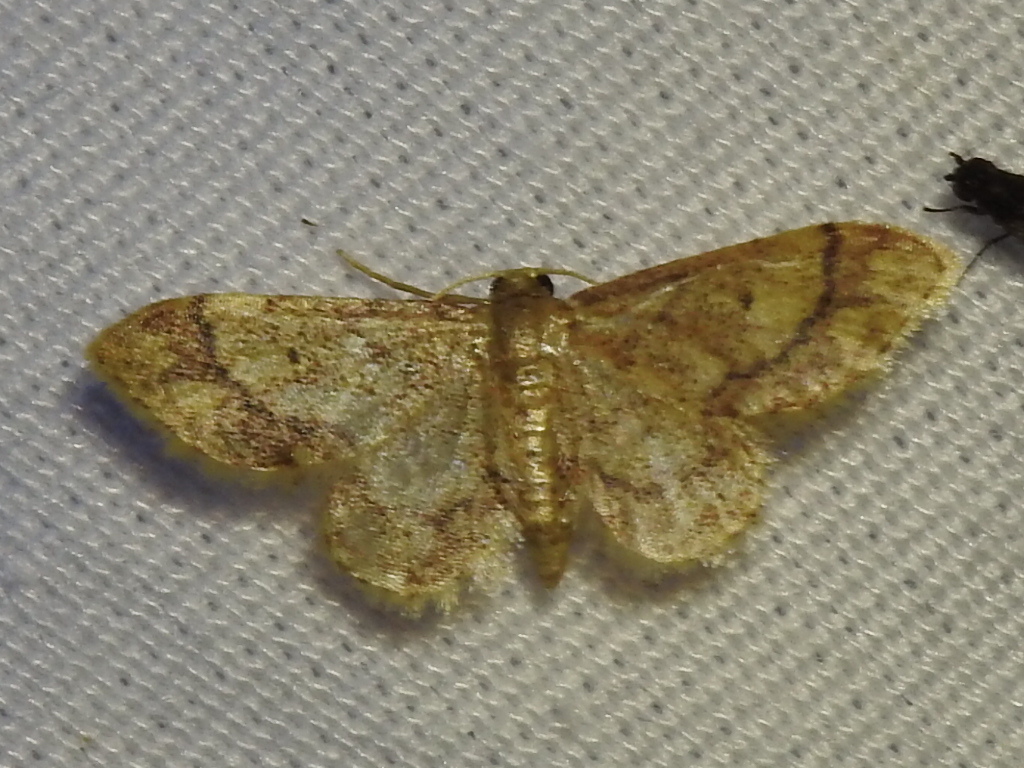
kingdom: Animalia
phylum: Arthropoda
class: Insecta
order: Lepidoptera
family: Geometridae
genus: Idaea
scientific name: Idaea celtima
